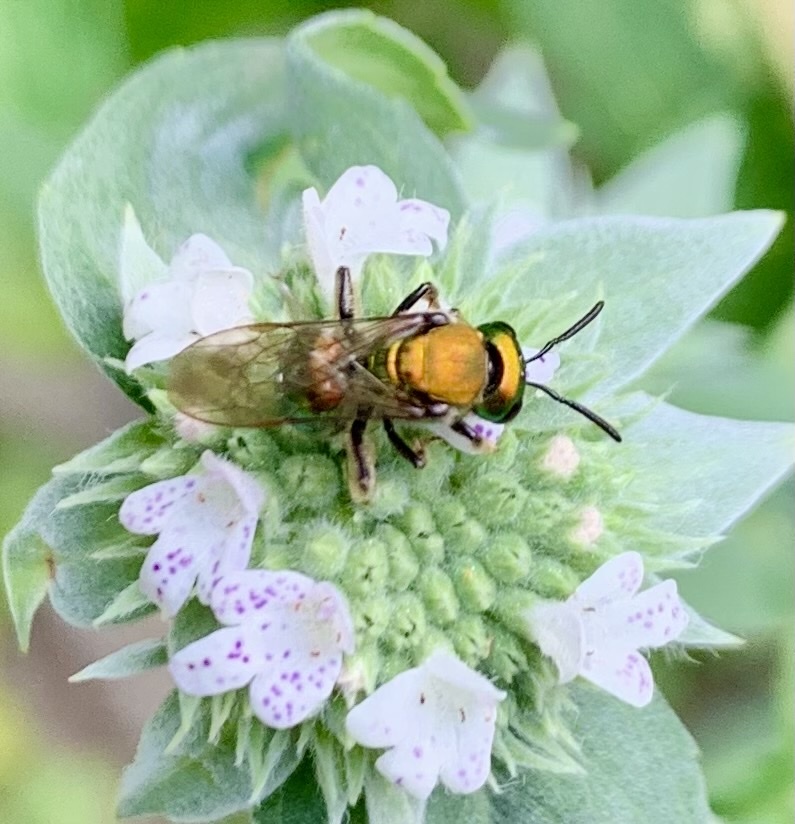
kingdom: Animalia
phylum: Arthropoda
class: Insecta
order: Hymenoptera
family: Halictidae
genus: Augochlora
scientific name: Augochlora pura
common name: Pure green sweat bee
